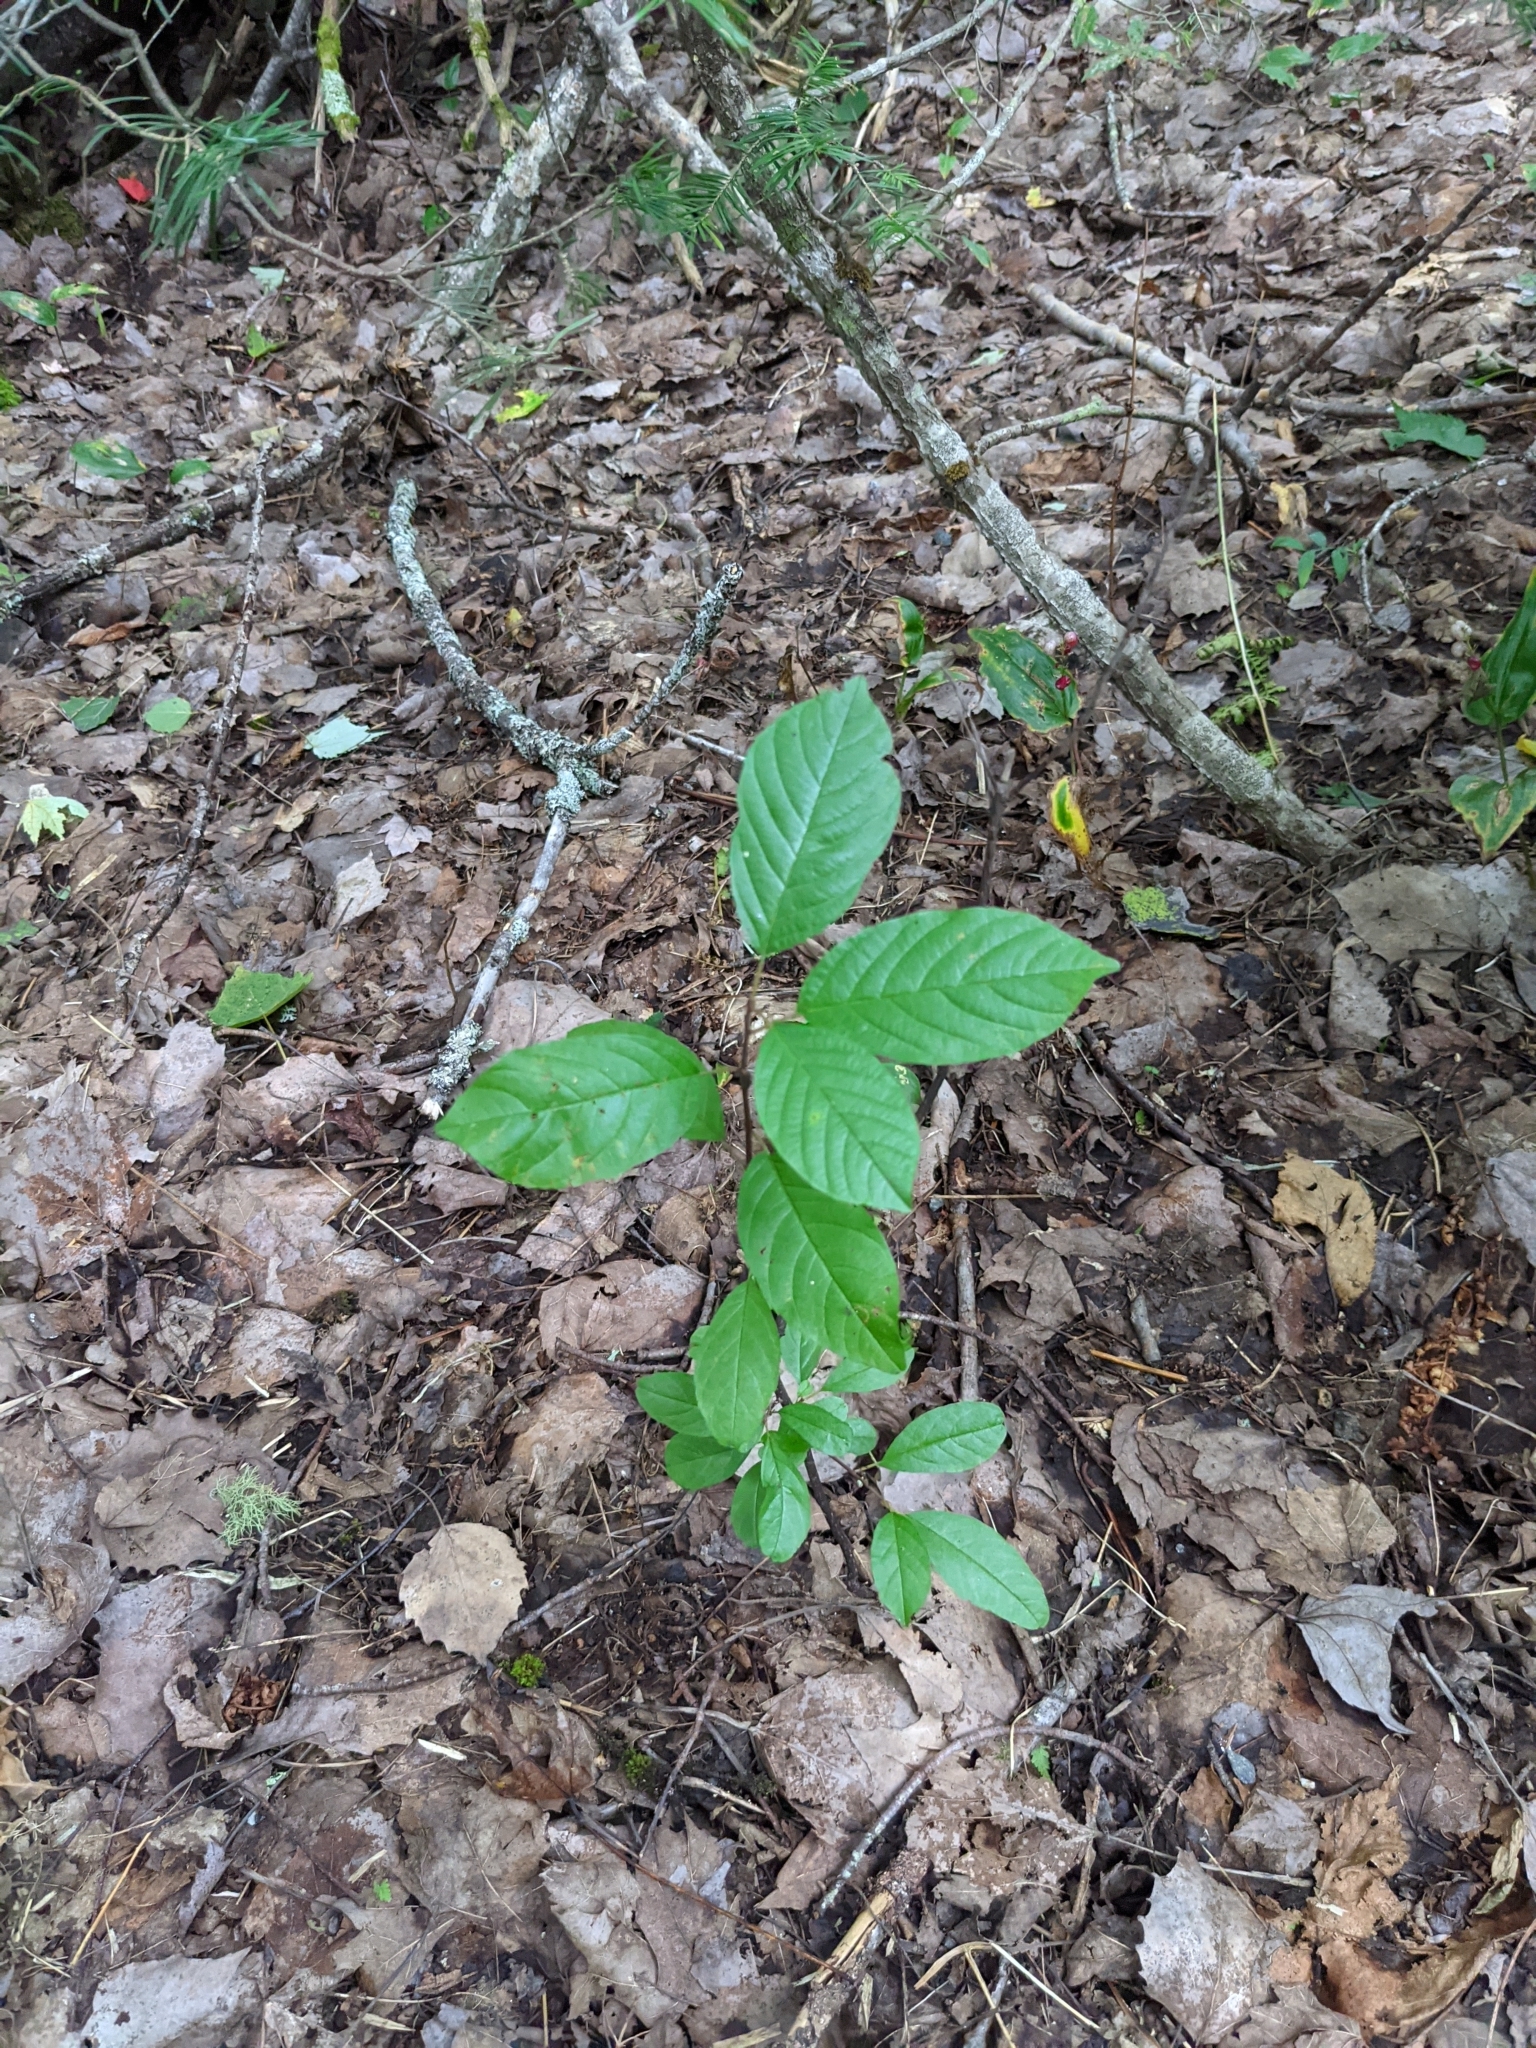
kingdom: Plantae
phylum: Tracheophyta
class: Magnoliopsida
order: Rosales
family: Rhamnaceae
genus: Frangula
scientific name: Frangula alnus
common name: Alder buckthorn
